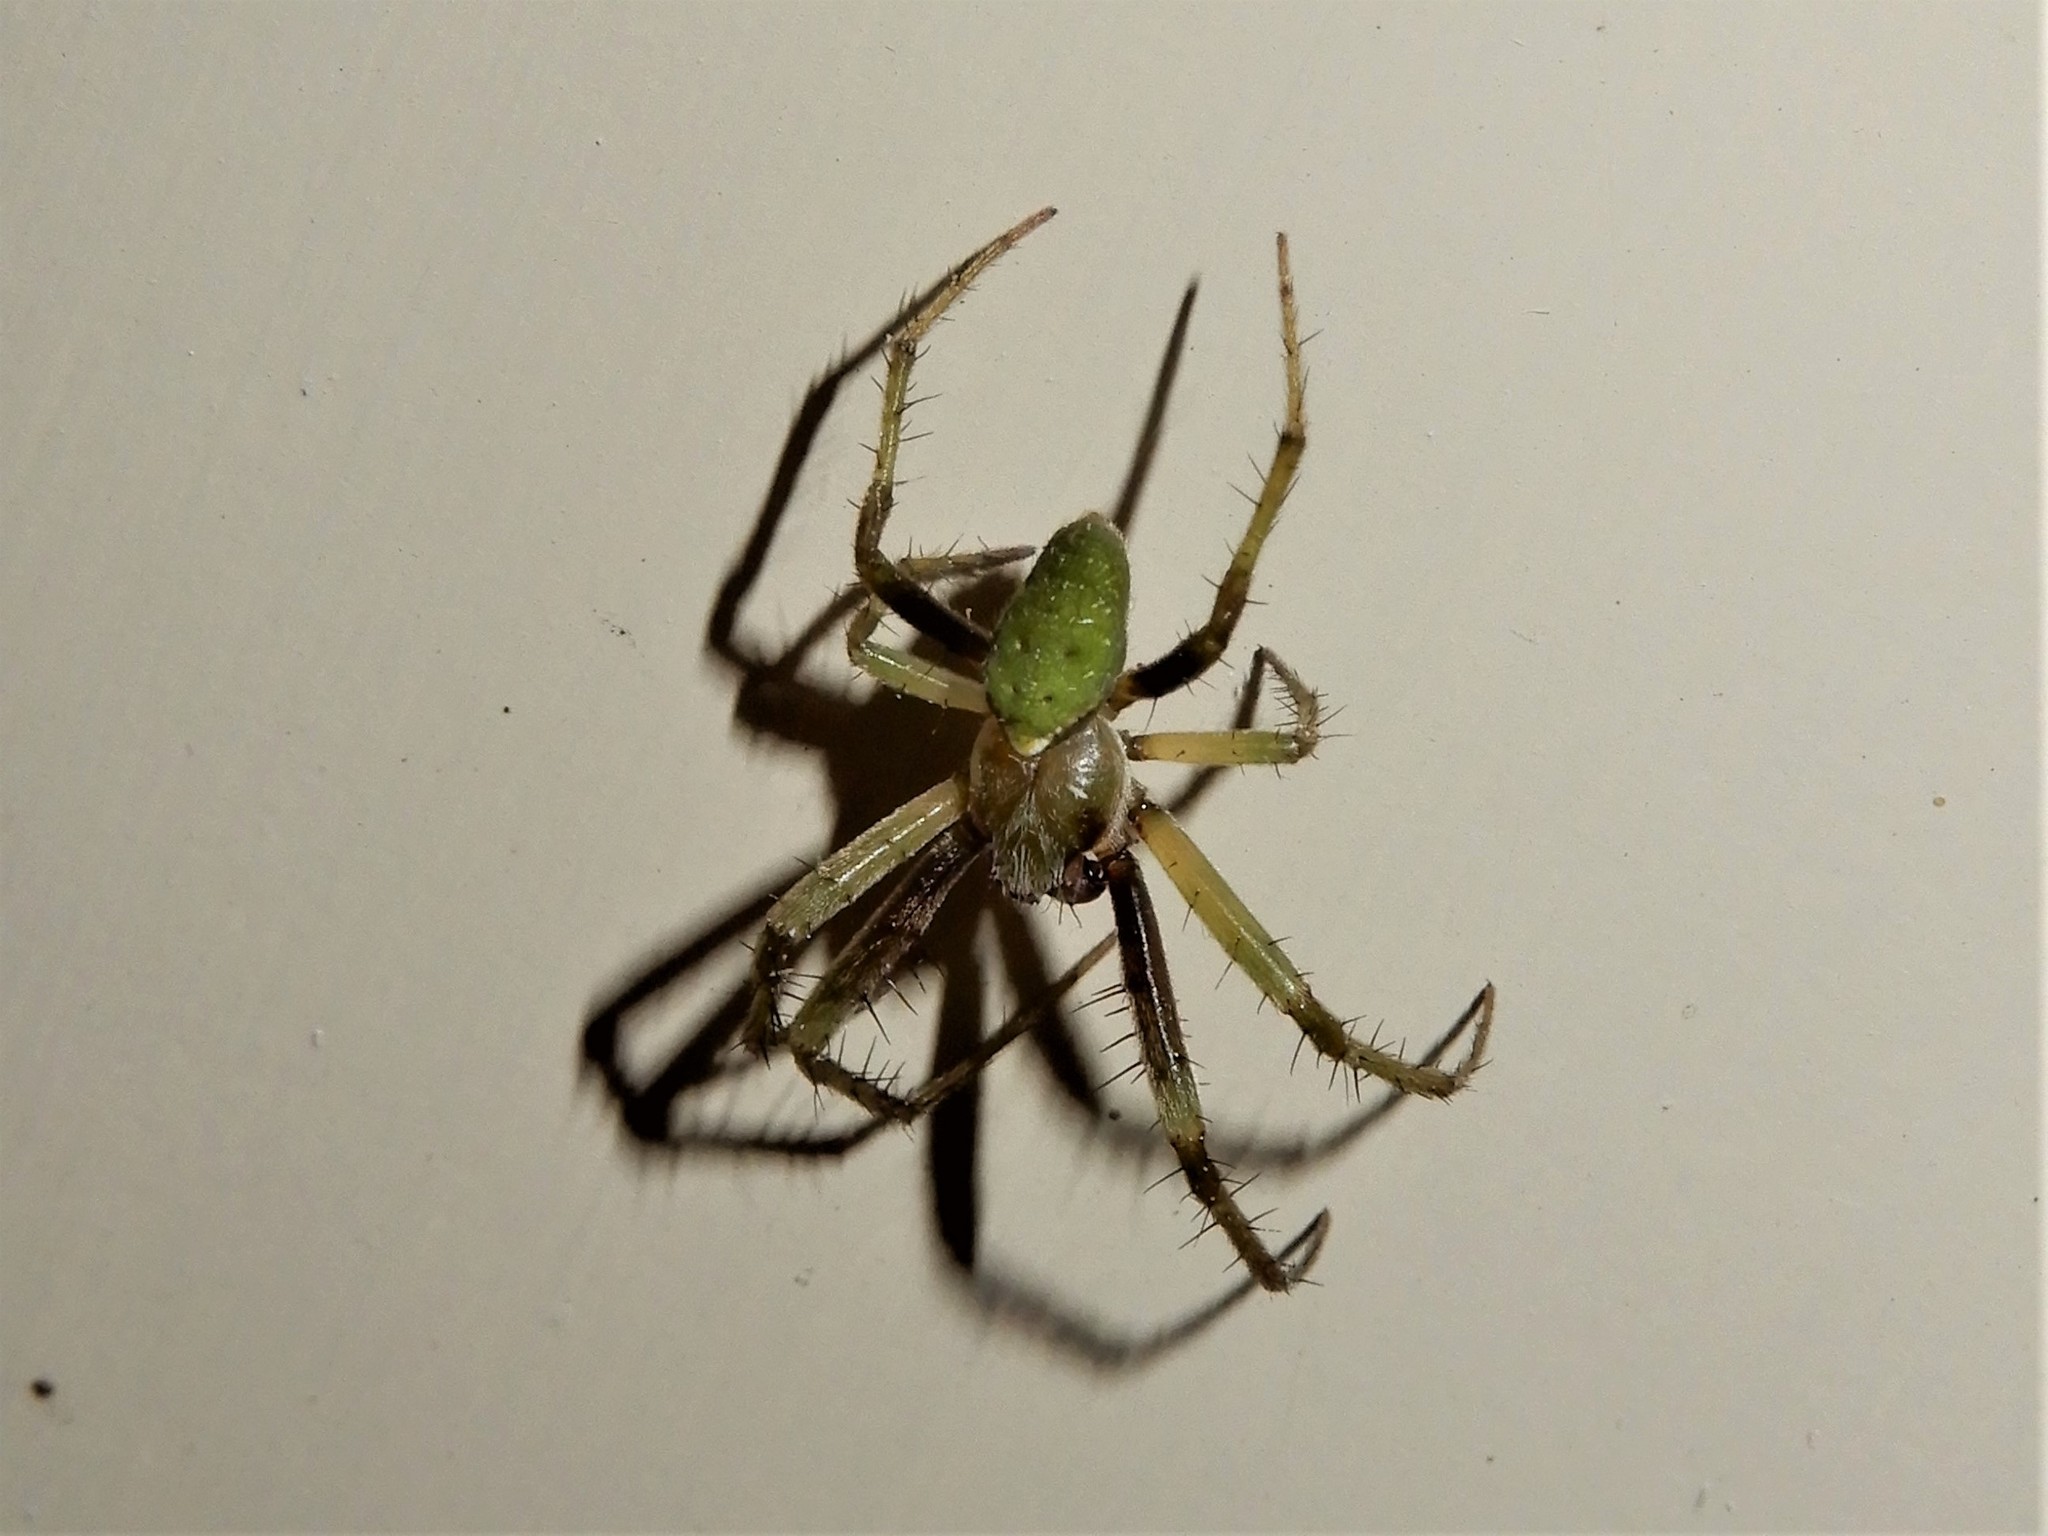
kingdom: Animalia
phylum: Arthropoda
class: Arachnida
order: Araneae
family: Araneidae
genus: Colaranea
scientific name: Colaranea viriditas
